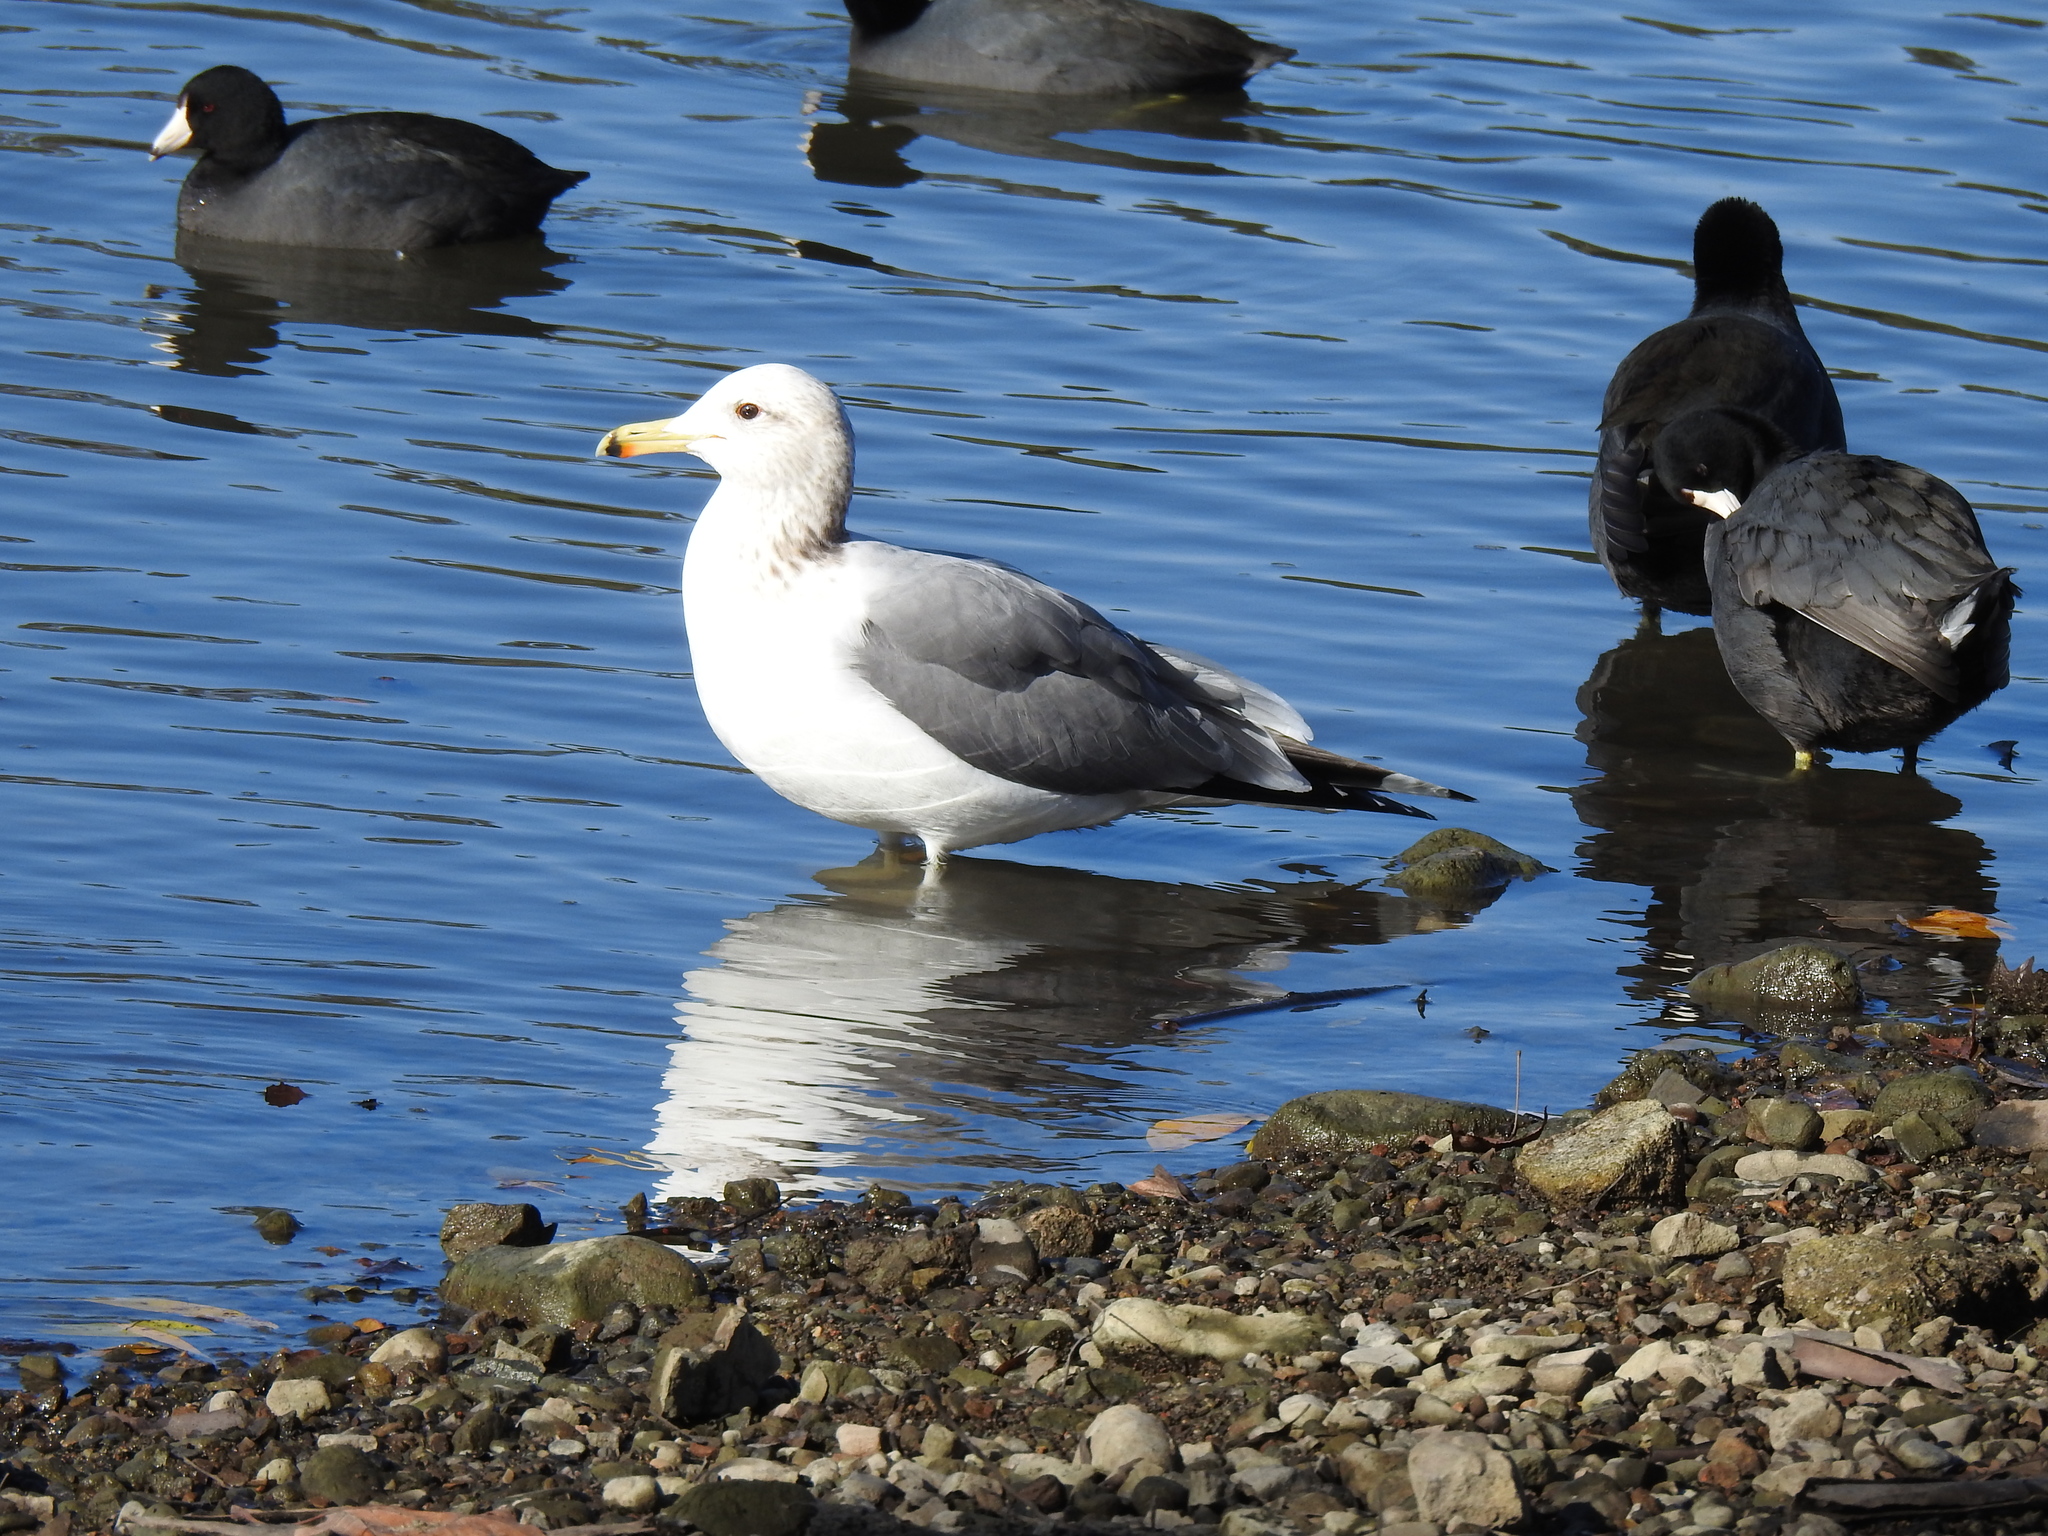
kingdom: Animalia
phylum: Chordata
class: Aves
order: Charadriiformes
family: Laridae
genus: Larus
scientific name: Larus californicus
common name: California gull
